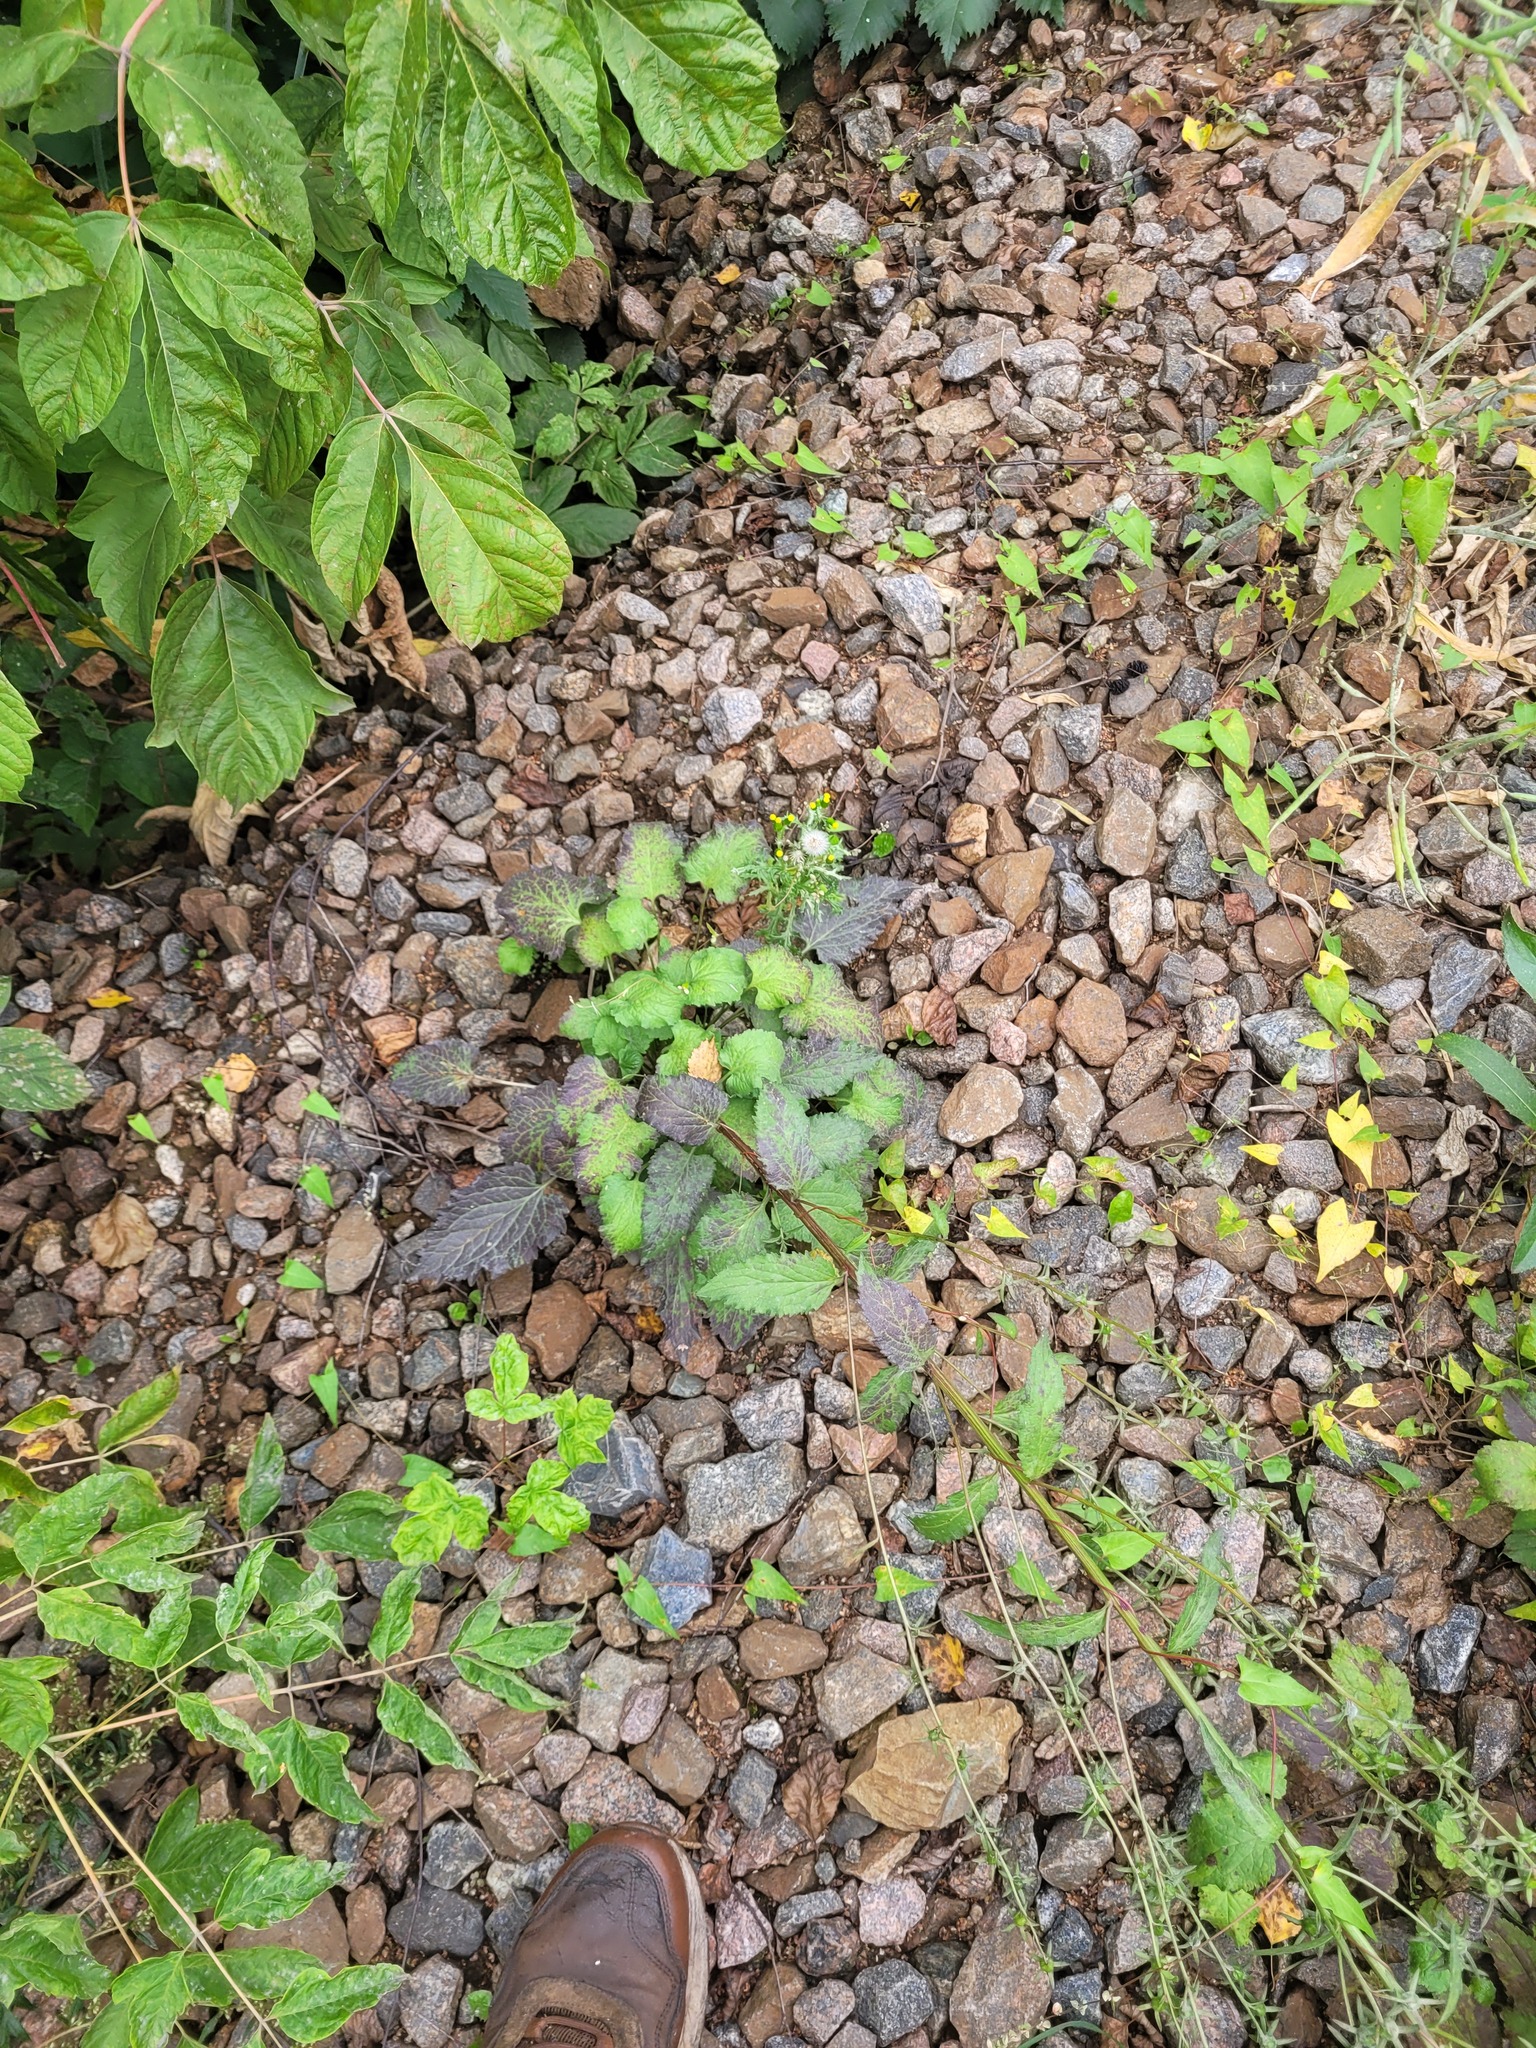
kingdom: Plantae
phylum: Tracheophyta
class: Magnoliopsida
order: Asterales
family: Campanulaceae
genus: Campanula
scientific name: Campanula rapunculoides
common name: Creeping bellflower
